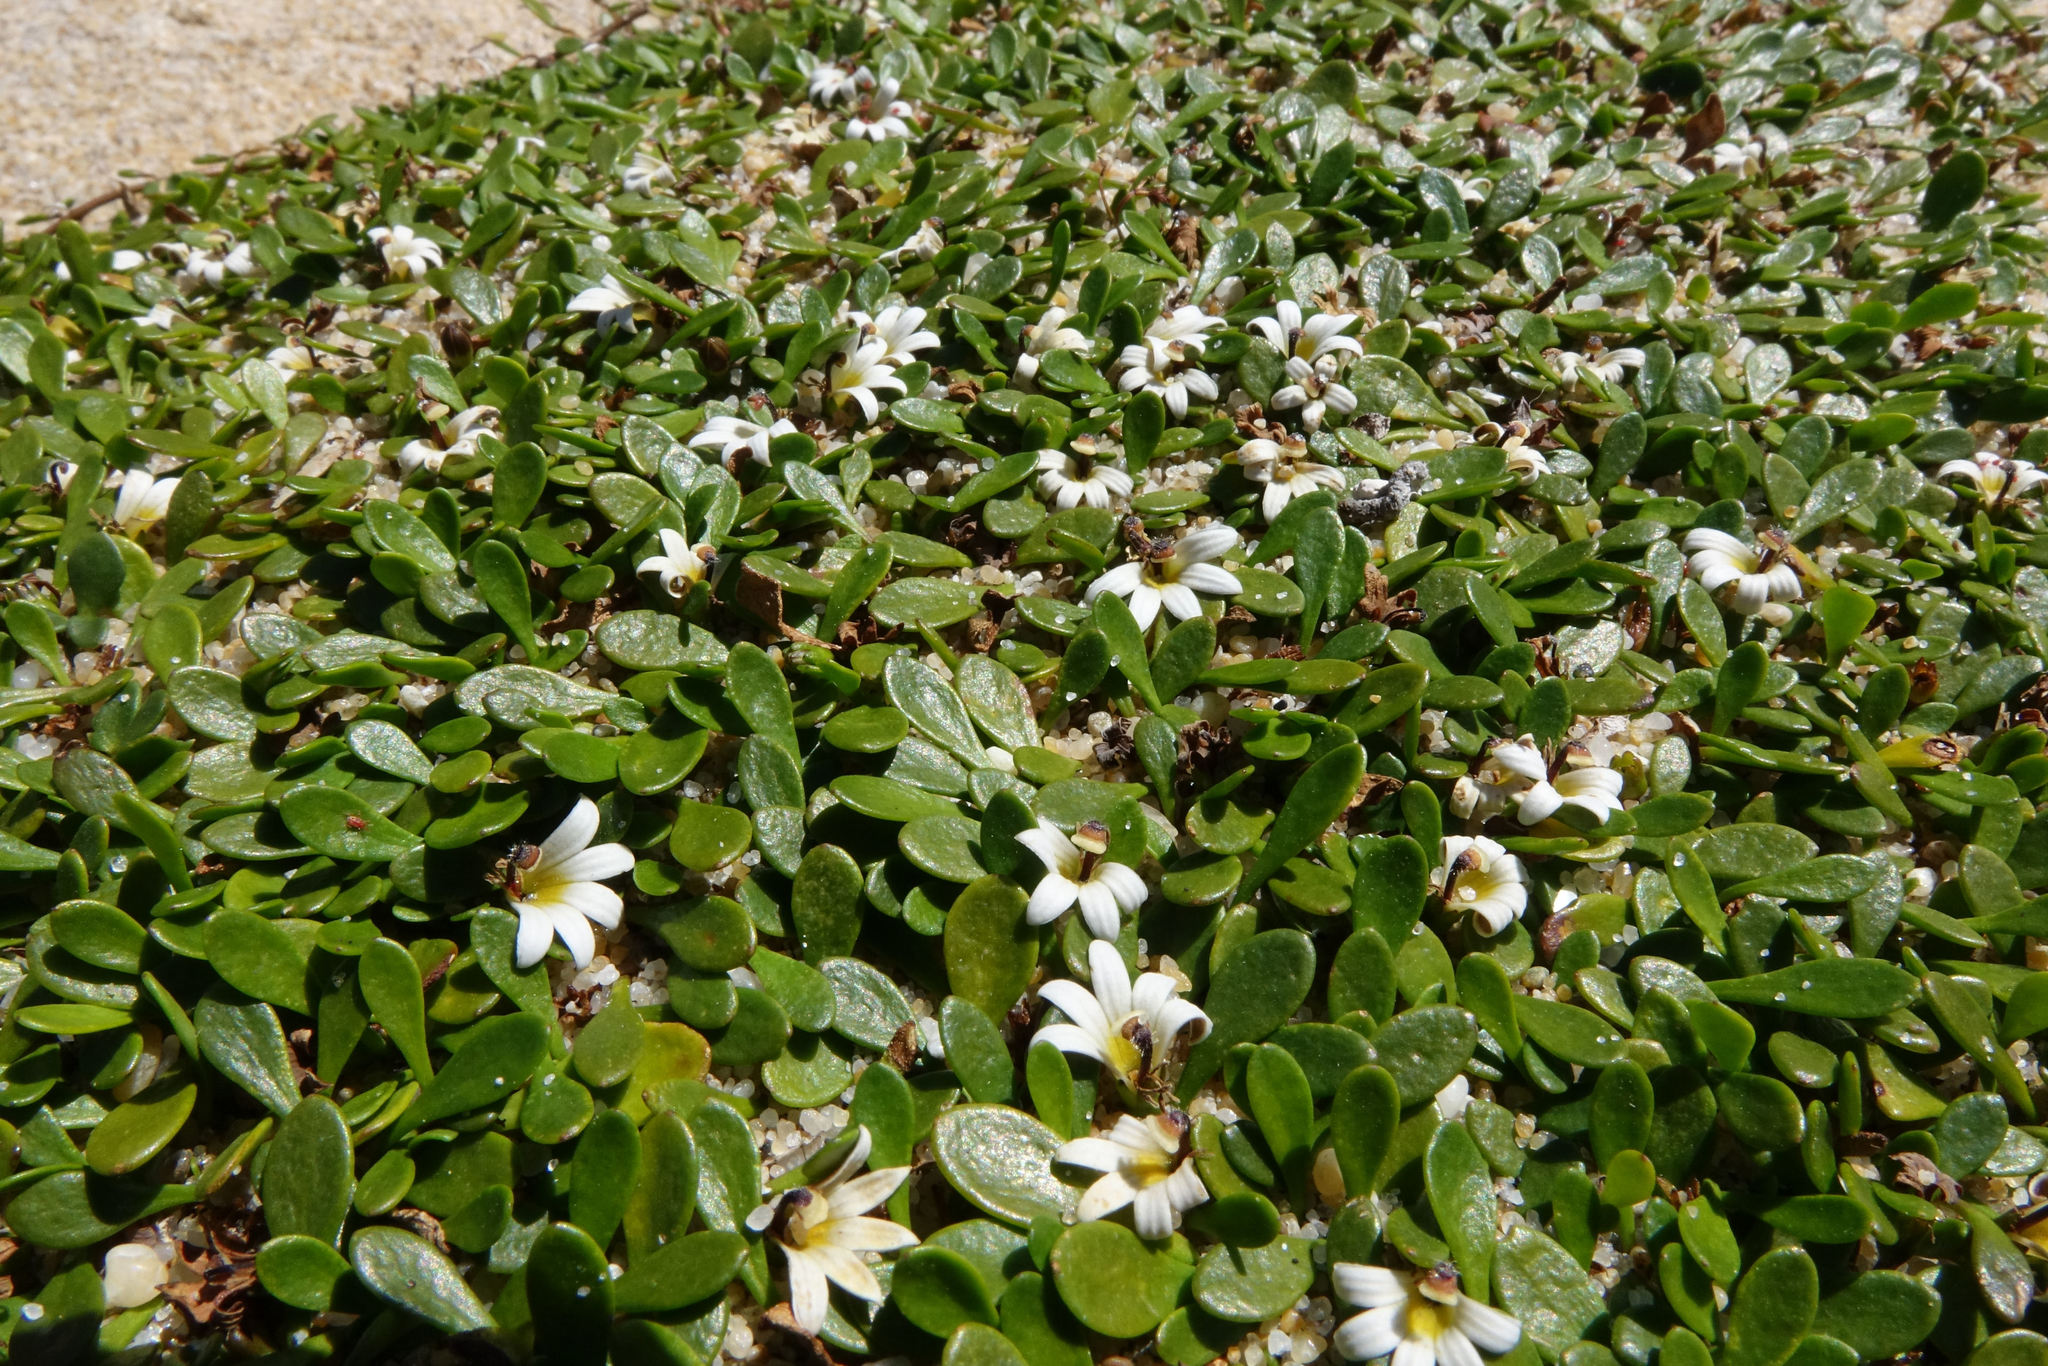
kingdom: Plantae
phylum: Tracheophyta
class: Magnoliopsida
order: Asterales
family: Goodeniaceae
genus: Goodenia
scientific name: Goodenia radicans
